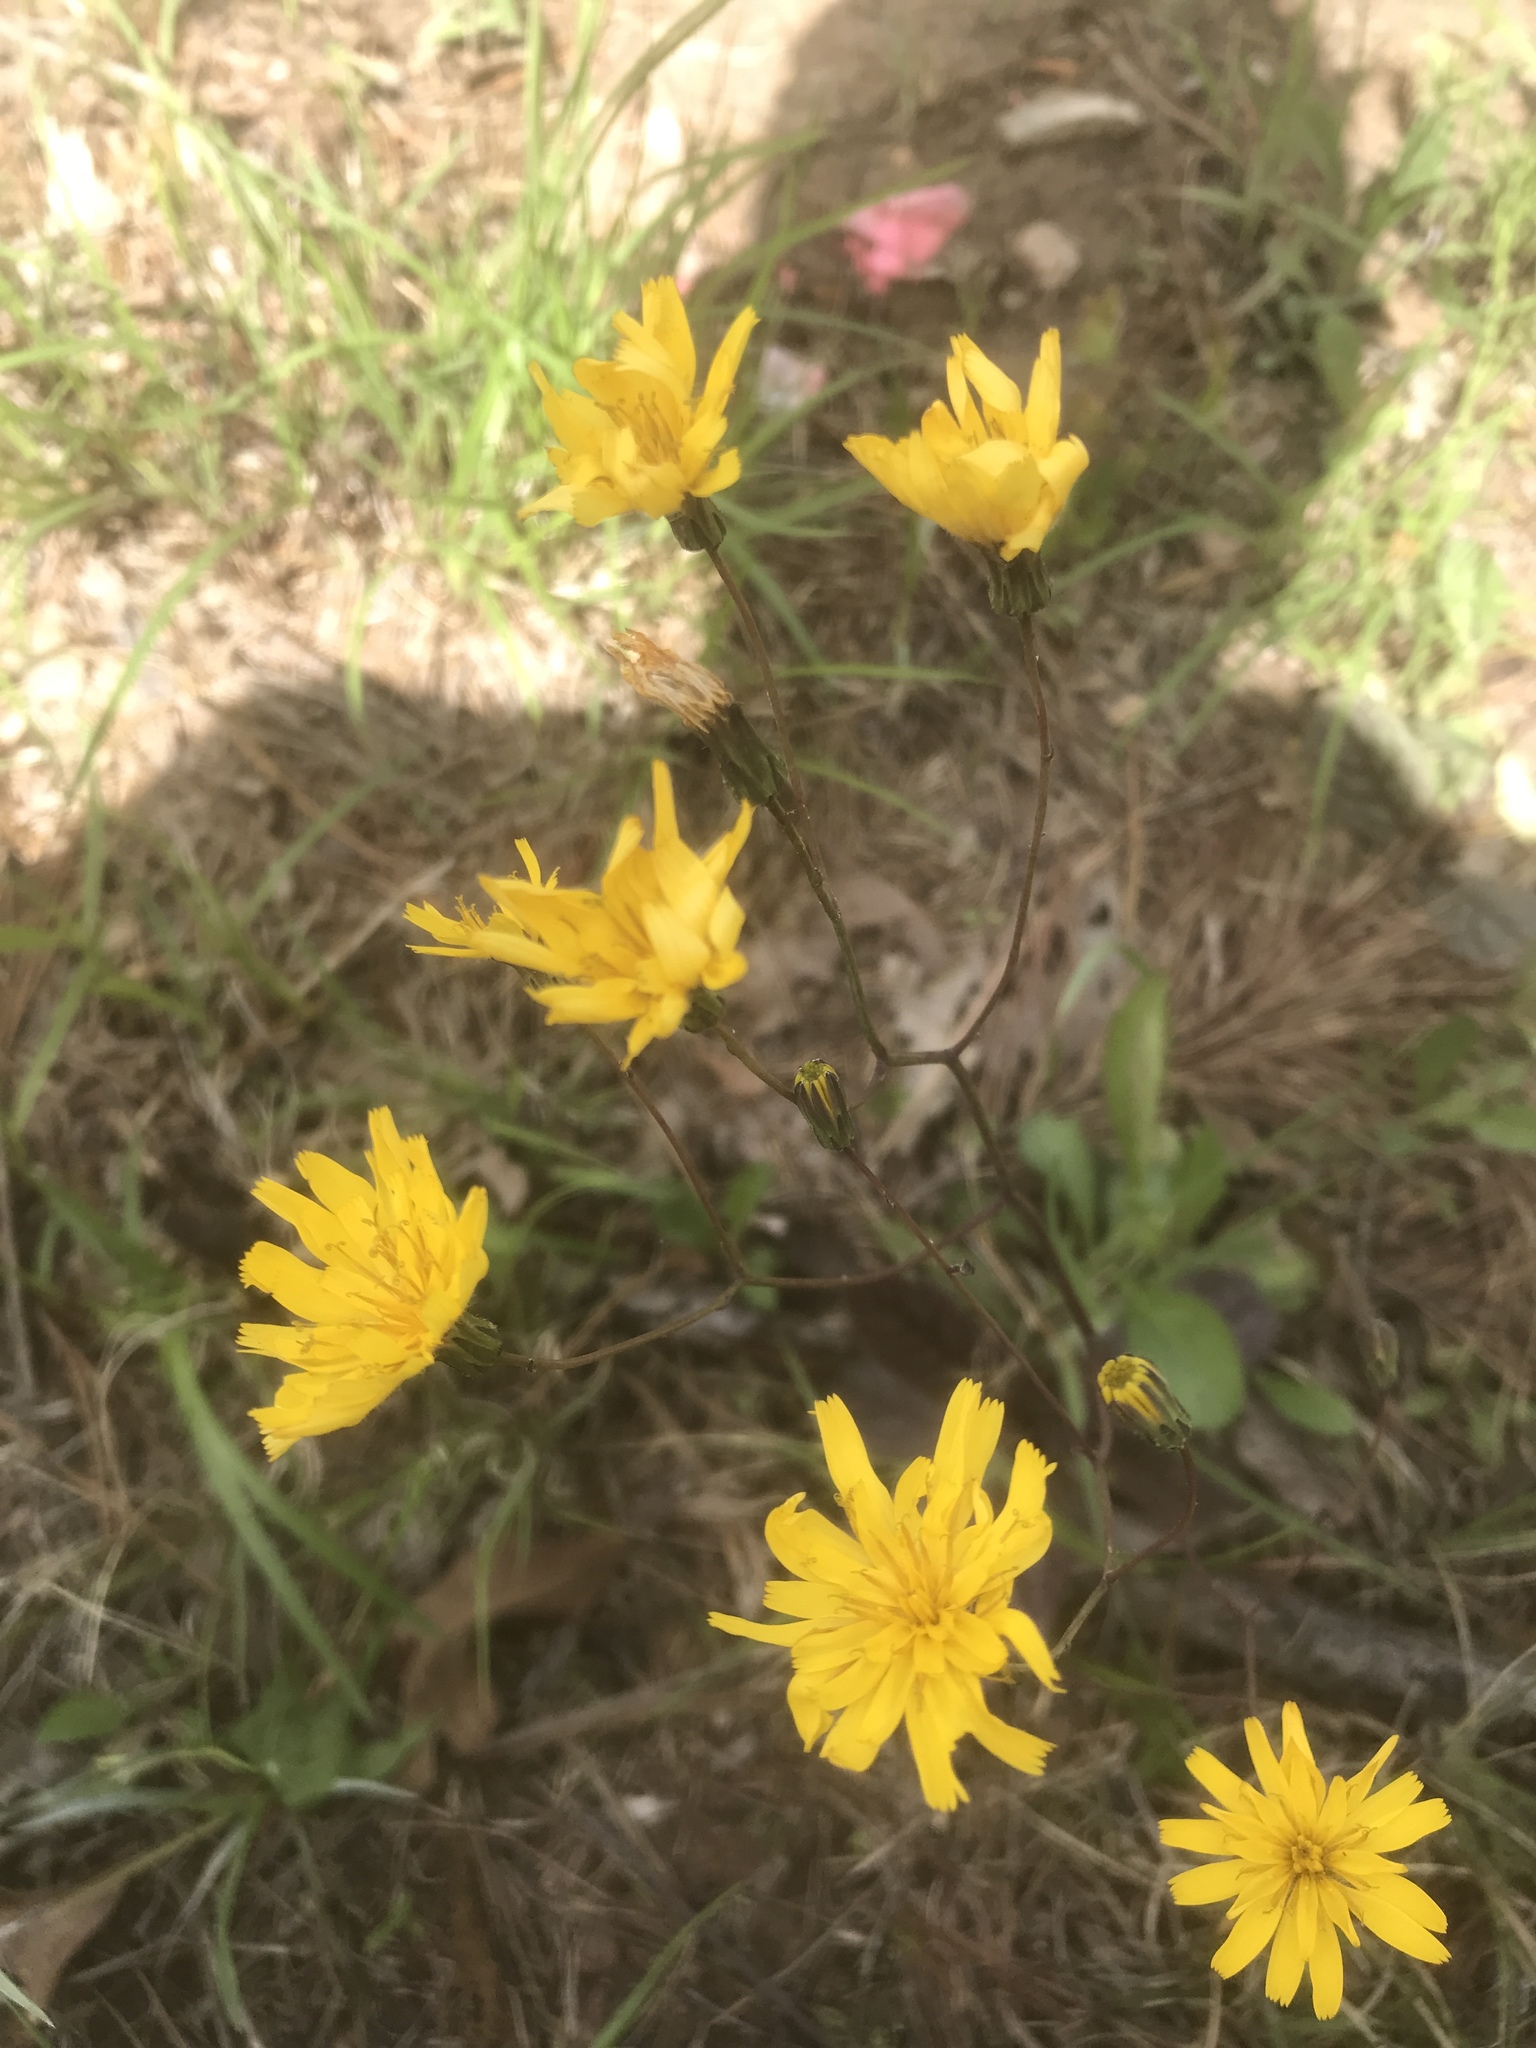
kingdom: Plantae
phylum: Tracheophyta
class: Magnoliopsida
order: Asterales
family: Asteraceae
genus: Hieracium
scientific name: Hieracium venosum
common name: Rattlesnake hawkweed
